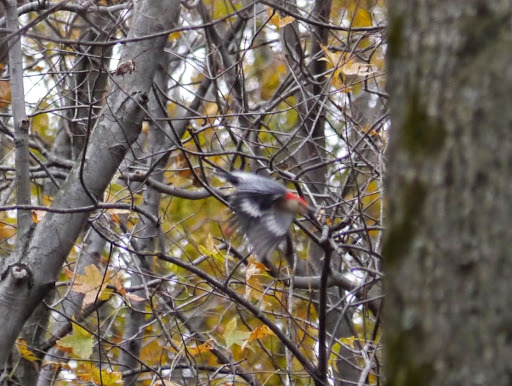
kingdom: Animalia
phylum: Chordata
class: Aves
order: Piciformes
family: Picidae
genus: Melanerpes
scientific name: Melanerpes carolinus
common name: Red-bellied woodpecker
